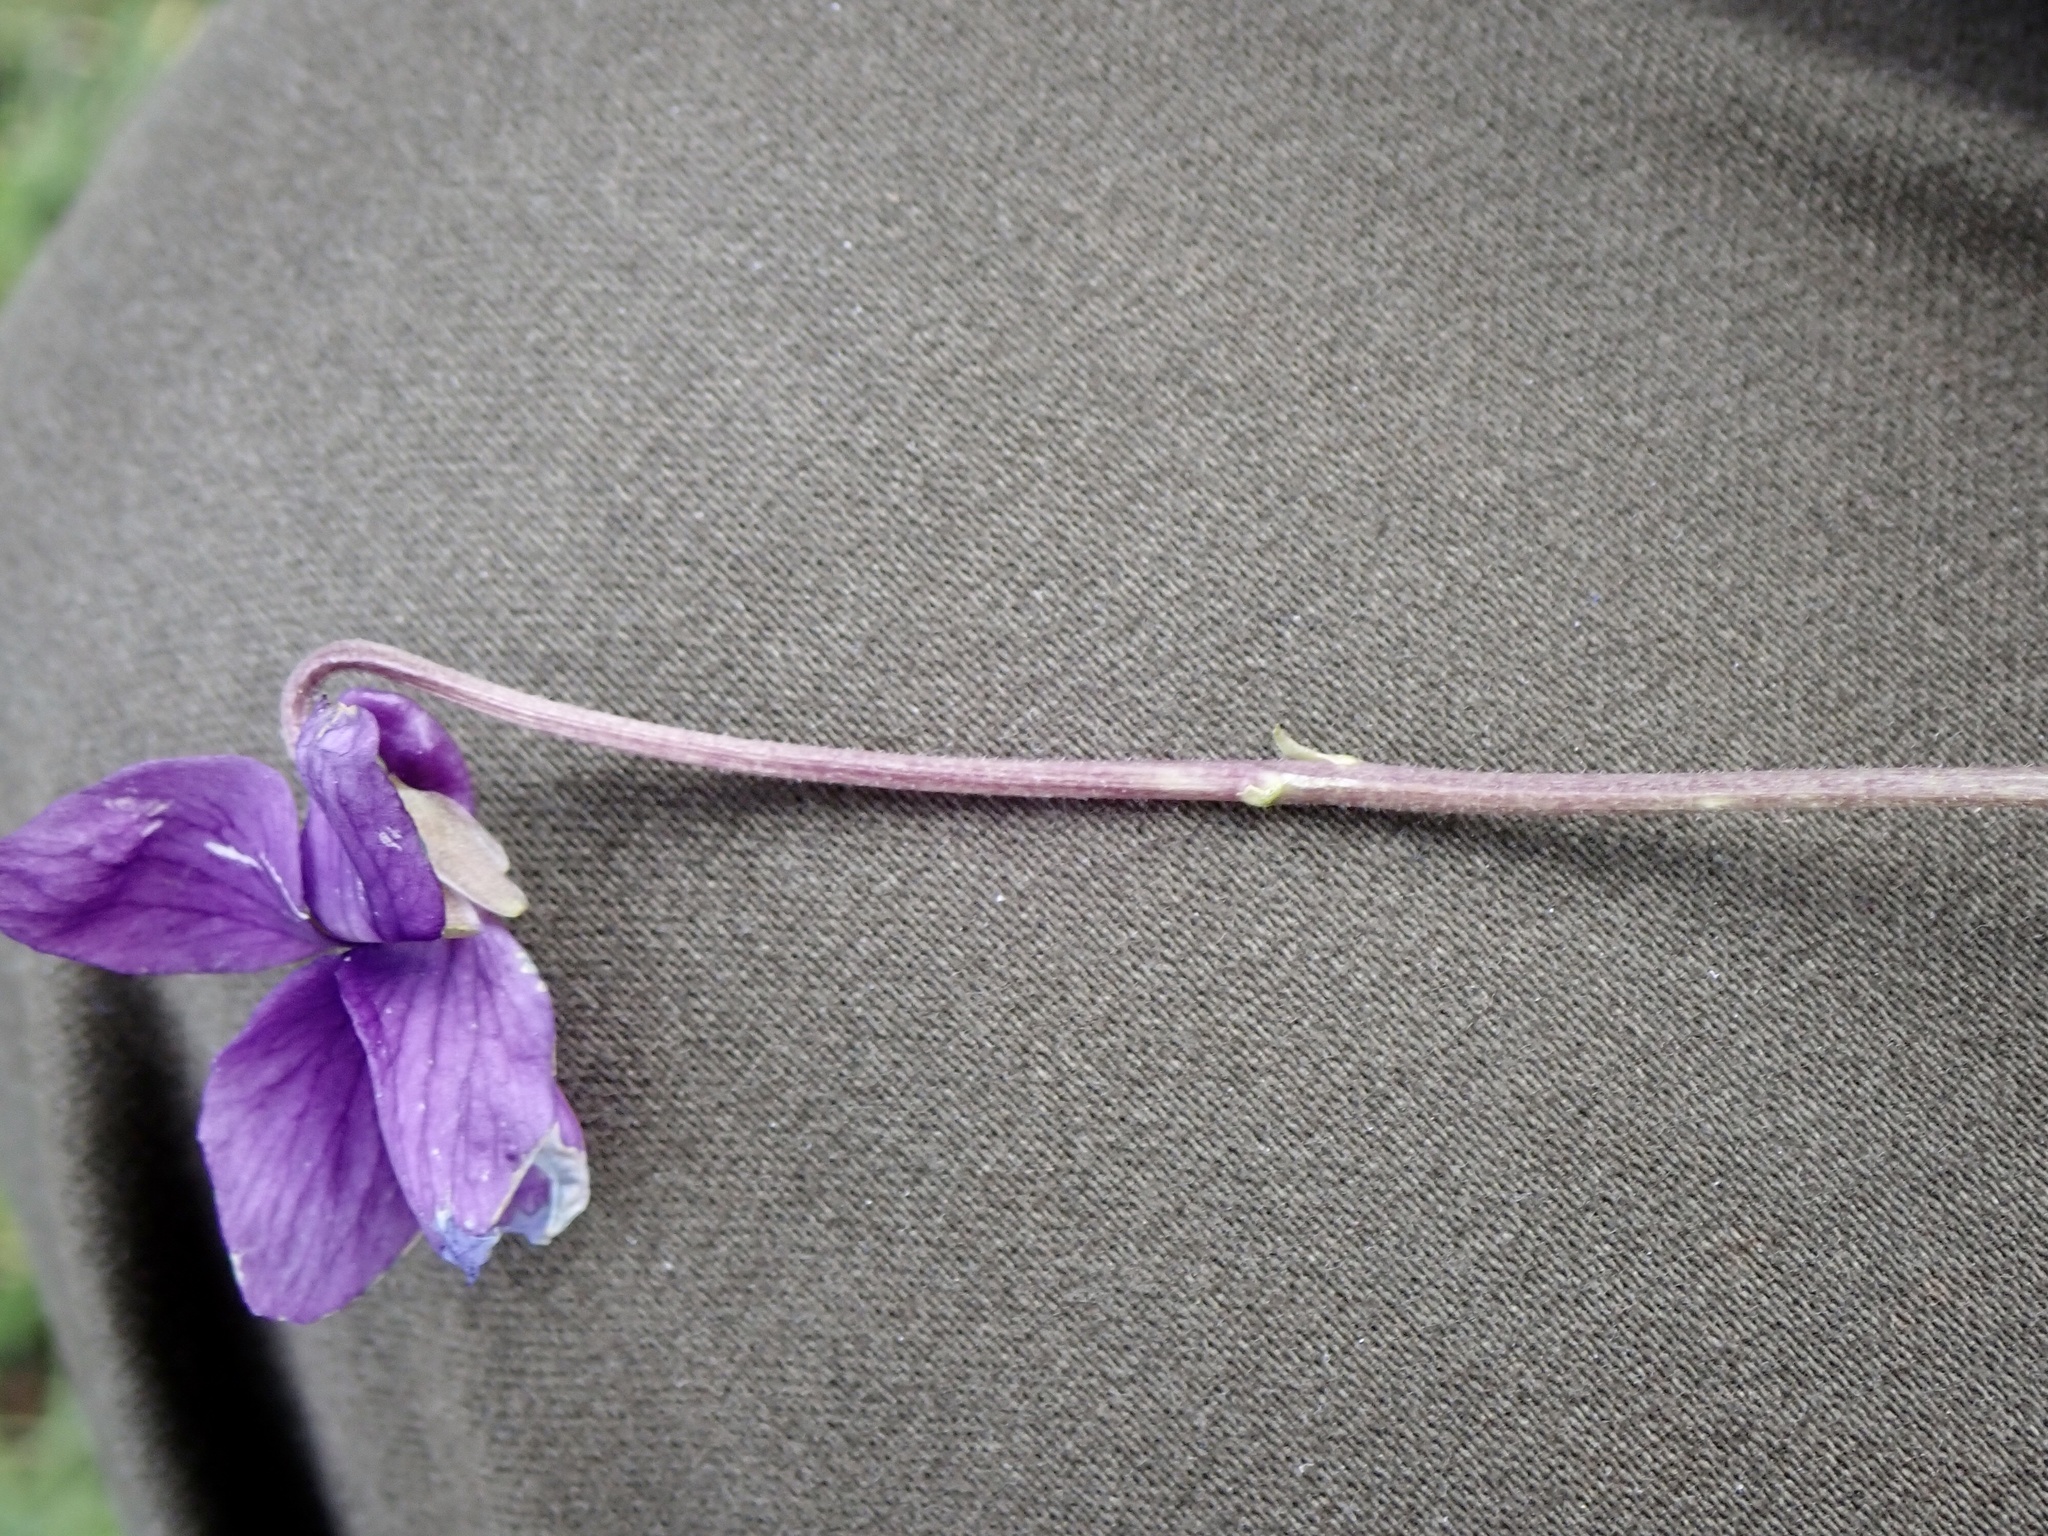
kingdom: Plantae
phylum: Tracheophyta
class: Magnoliopsida
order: Malpighiales
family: Violaceae
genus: Viola
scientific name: Viola odorata
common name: Sweet violet
